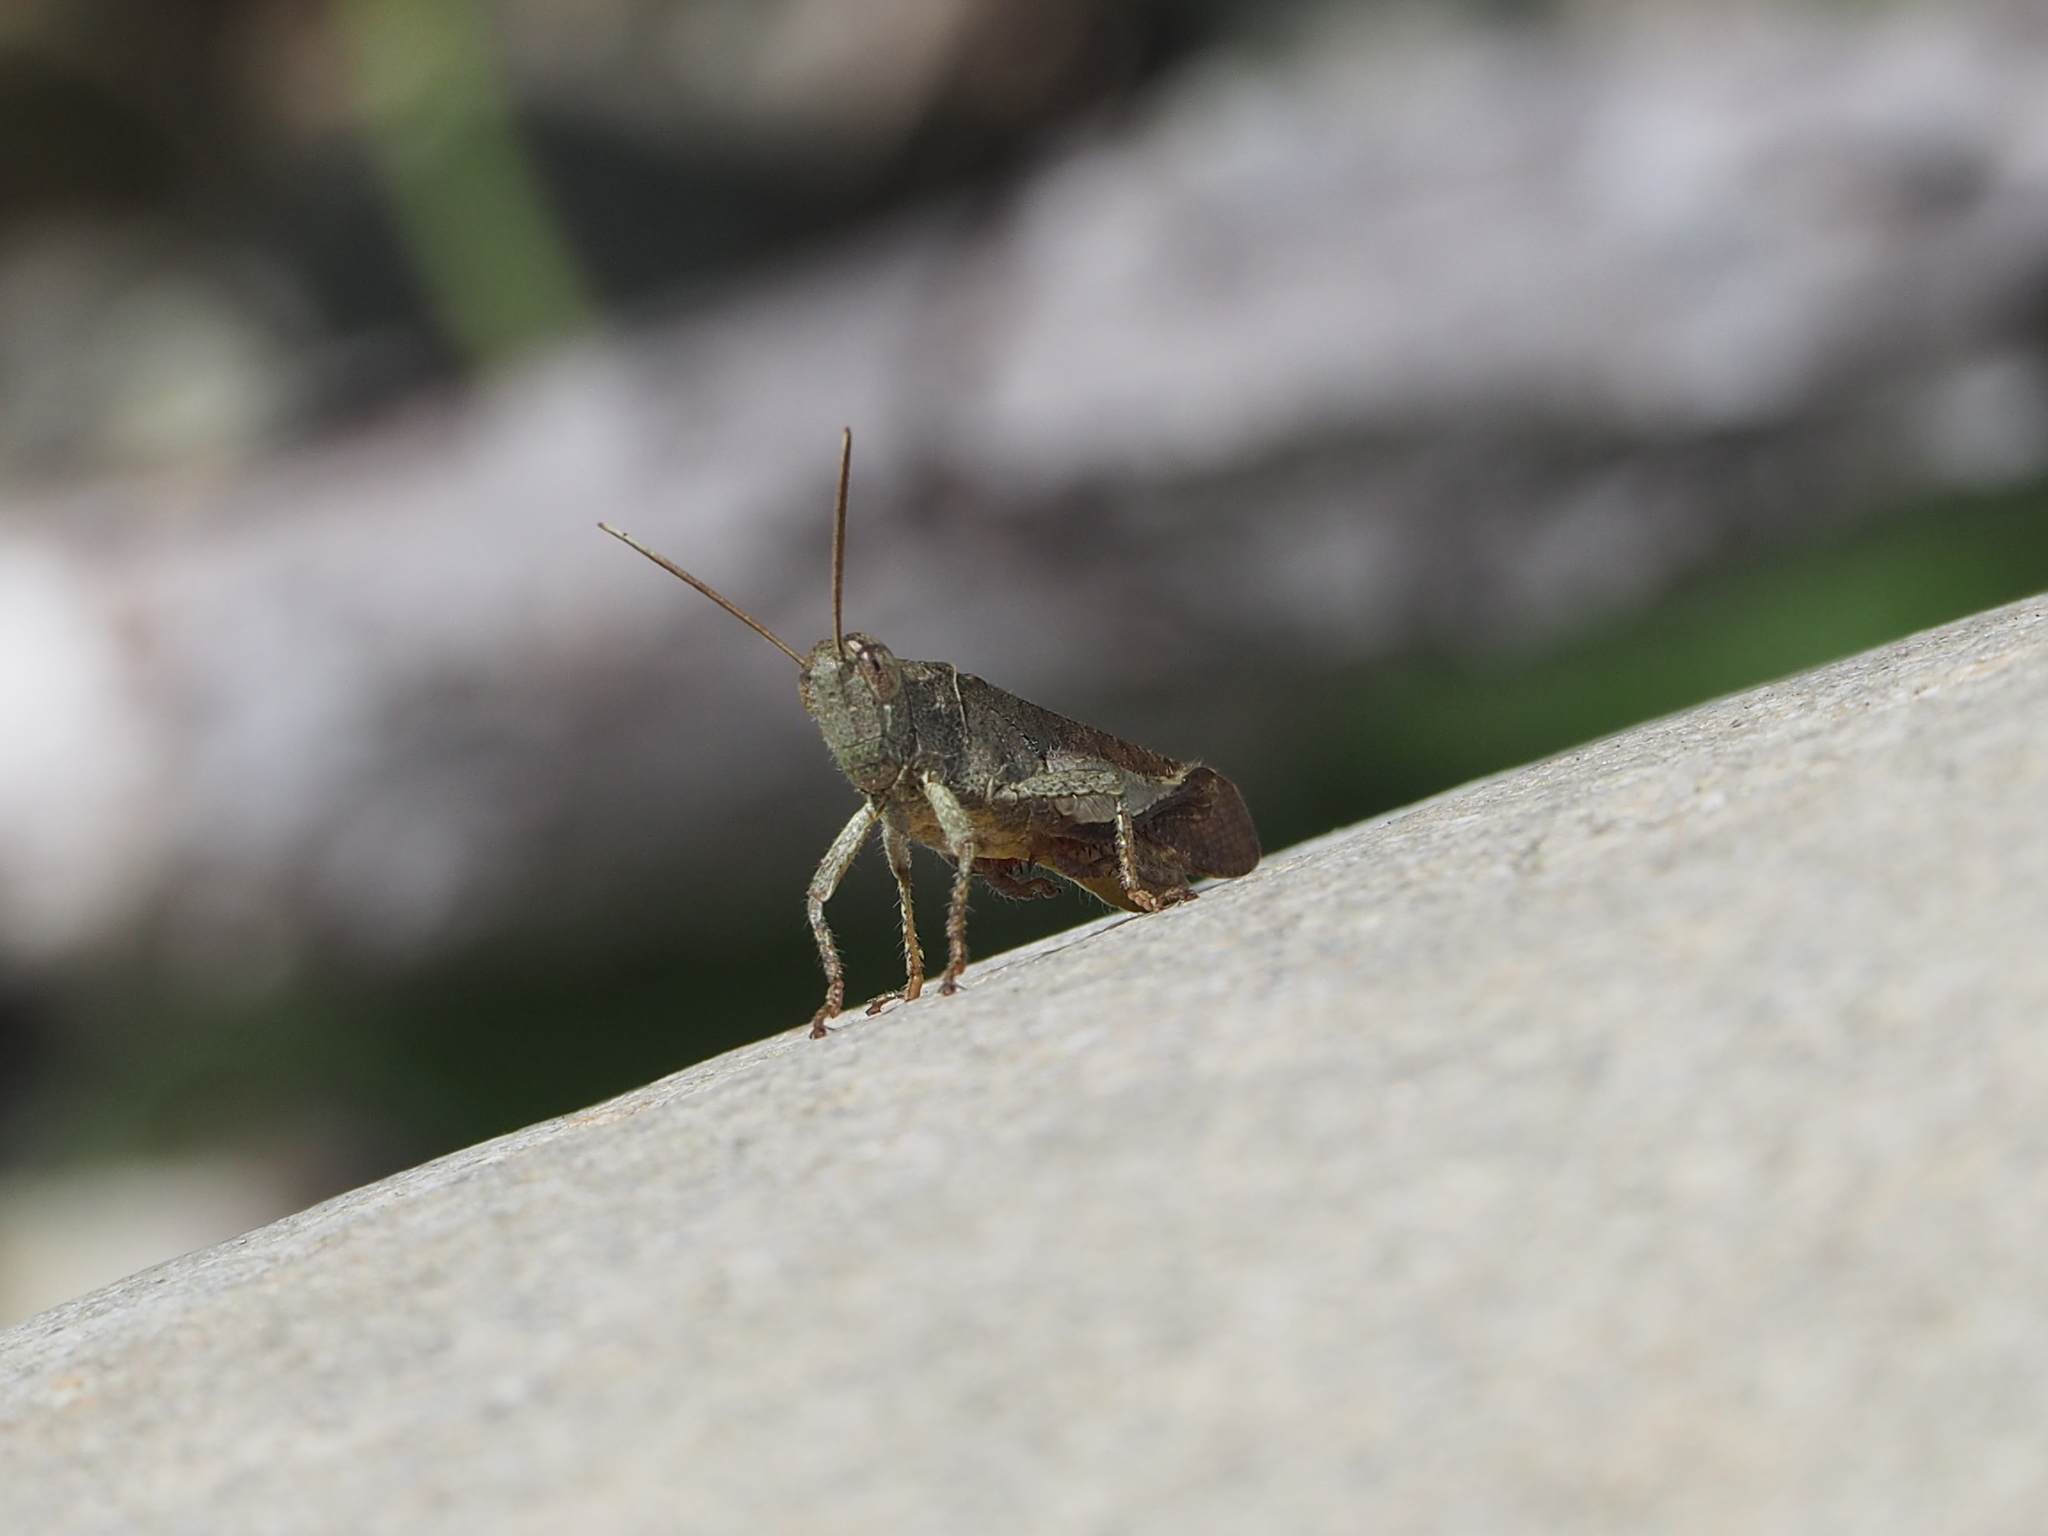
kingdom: Animalia
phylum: Arthropoda
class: Insecta
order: Orthoptera
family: Acrididae
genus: Eucoptacra
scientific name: Eucoptacra praemorsa
